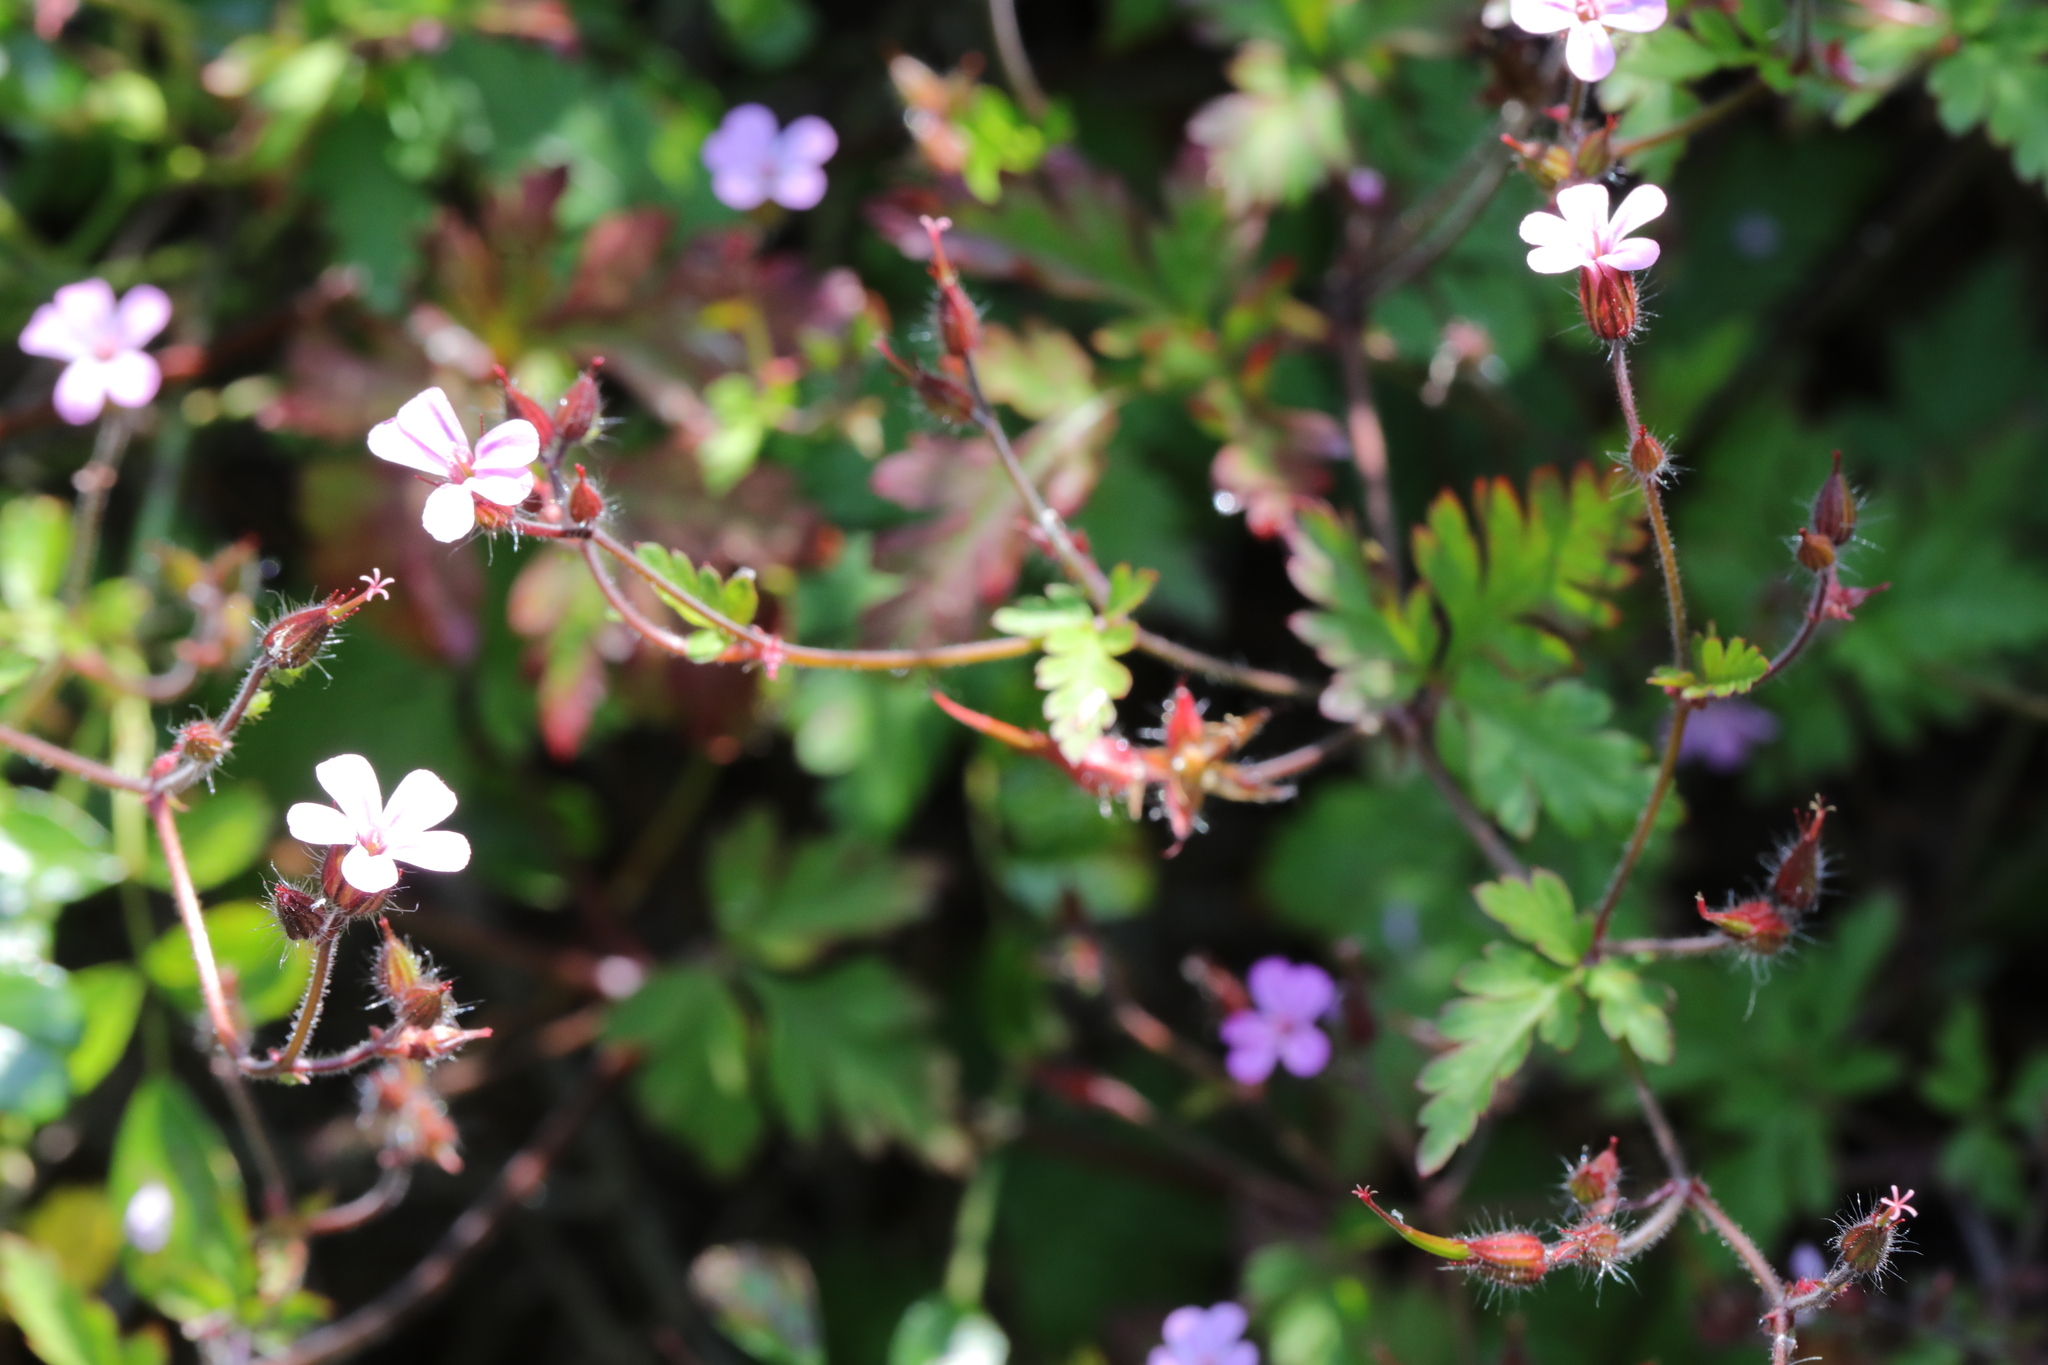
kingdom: Plantae
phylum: Tracheophyta
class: Magnoliopsida
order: Geraniales
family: Geraniaceae
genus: Geranium
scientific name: Geranium robertianum
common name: Herb-robert
